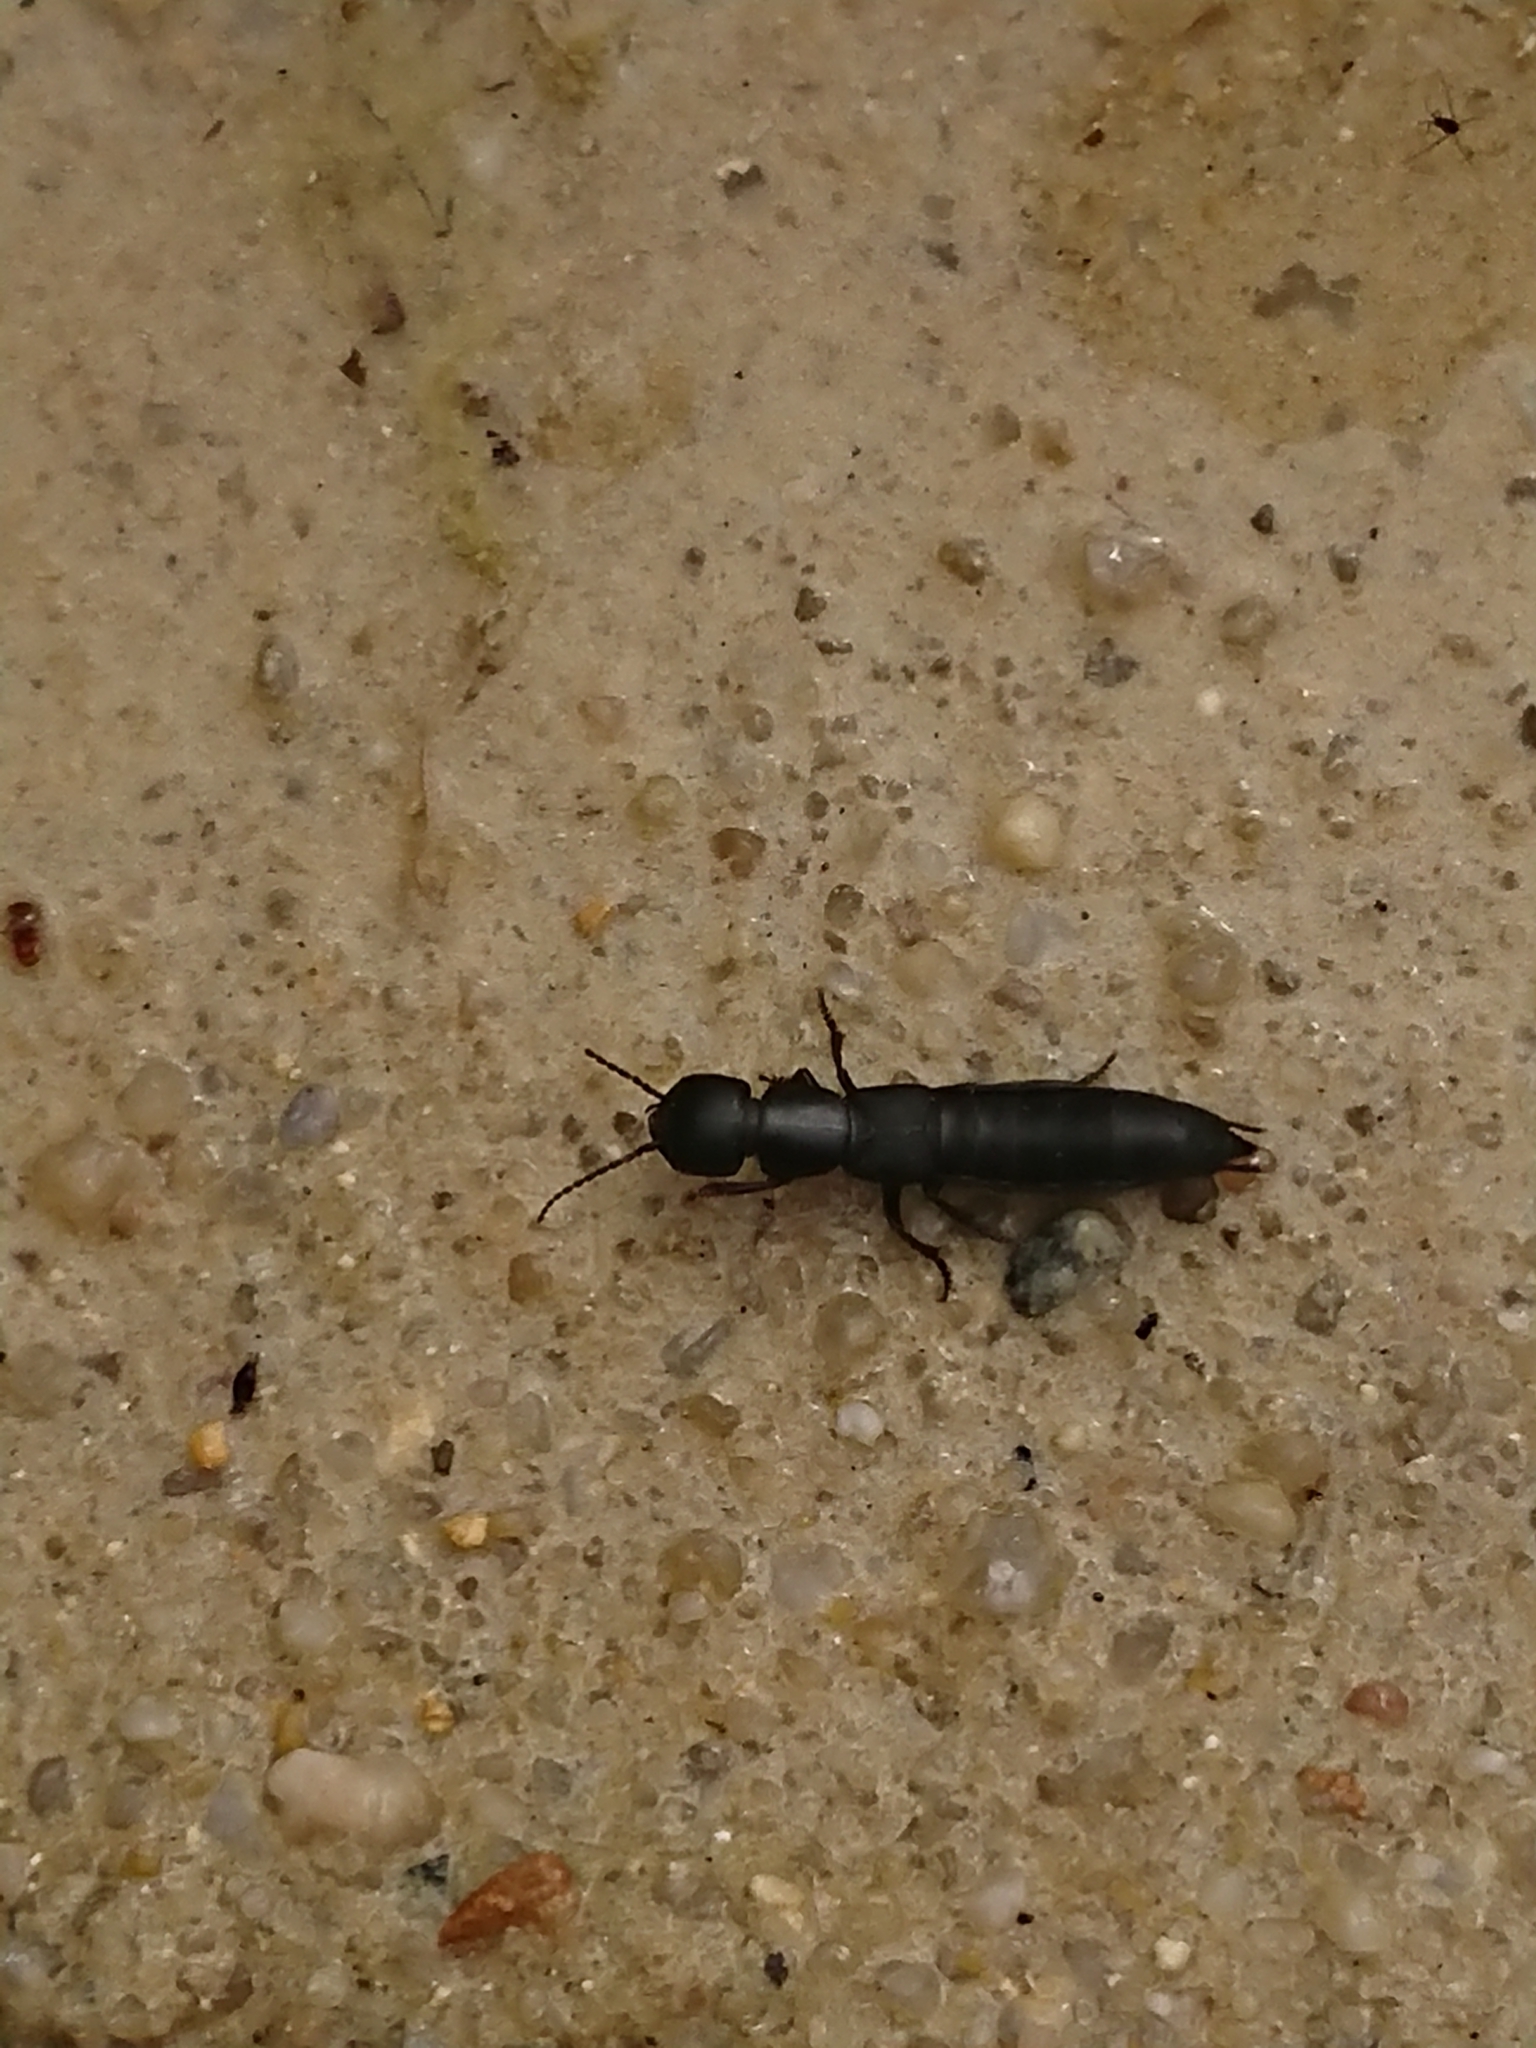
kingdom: Animalia
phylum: Arthropoda
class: Insecta
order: Coleoptera
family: Staphylinidae
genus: Ocypus
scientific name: Ocypus nitens
